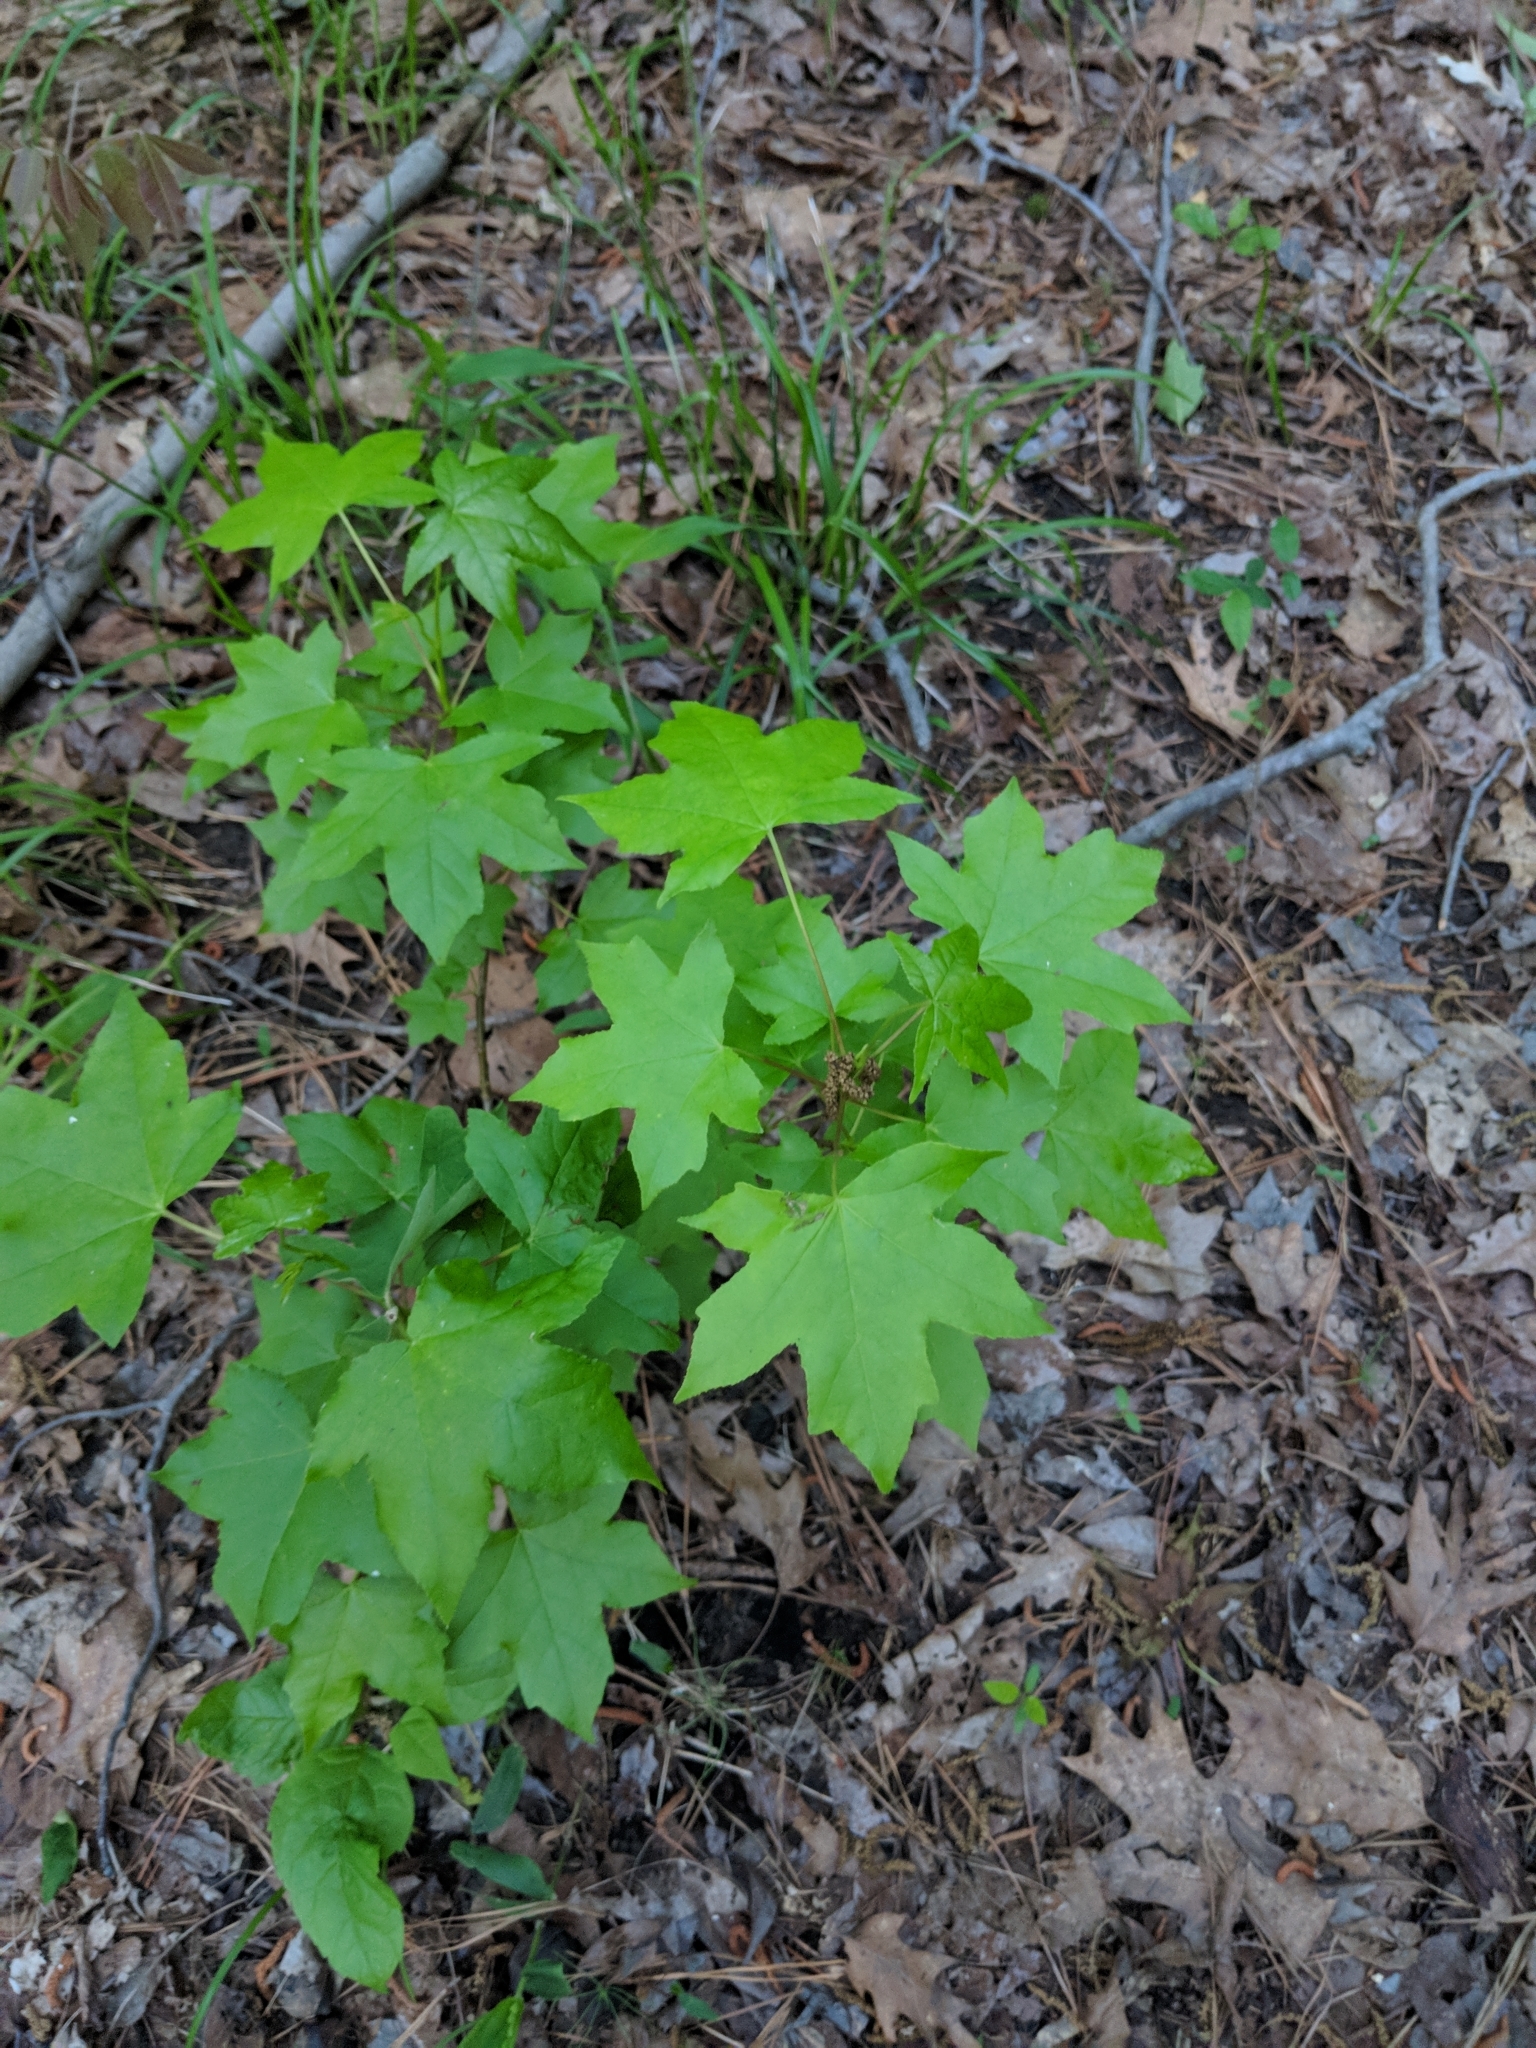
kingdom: Plantae
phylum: Tracheophyta
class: Magnoliopsida
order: Saxifragales
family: Altingiaceae
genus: Liquidambar
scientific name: Liquidambar styraciflua
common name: Sweet gum
